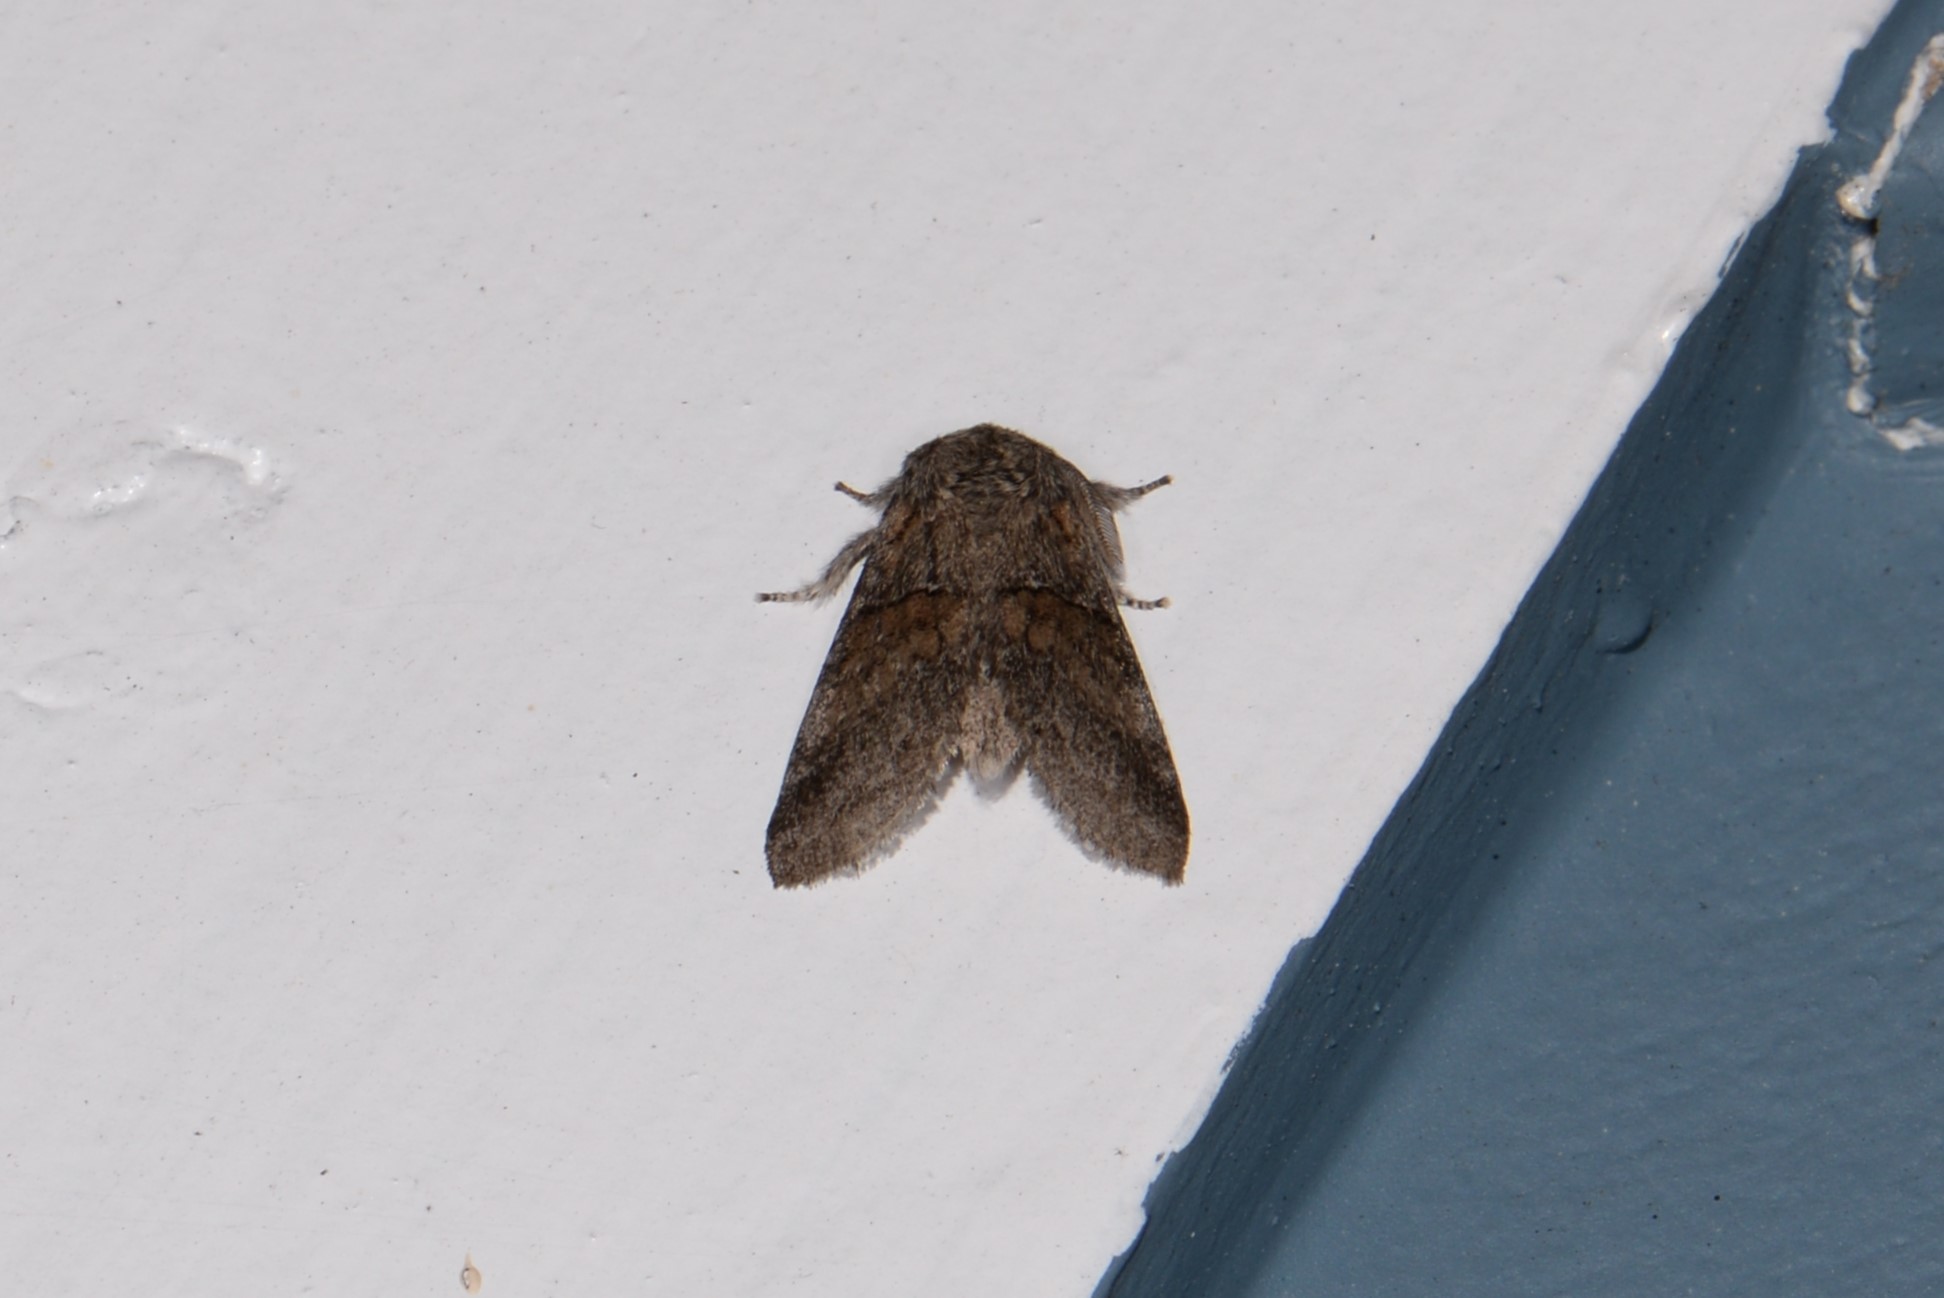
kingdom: Animalia
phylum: Arthropoda
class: Insecta
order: Lepidoptera
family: Notodontidae
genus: Gluphisia
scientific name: Gluphisia septentrionis
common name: Common gluphisia
